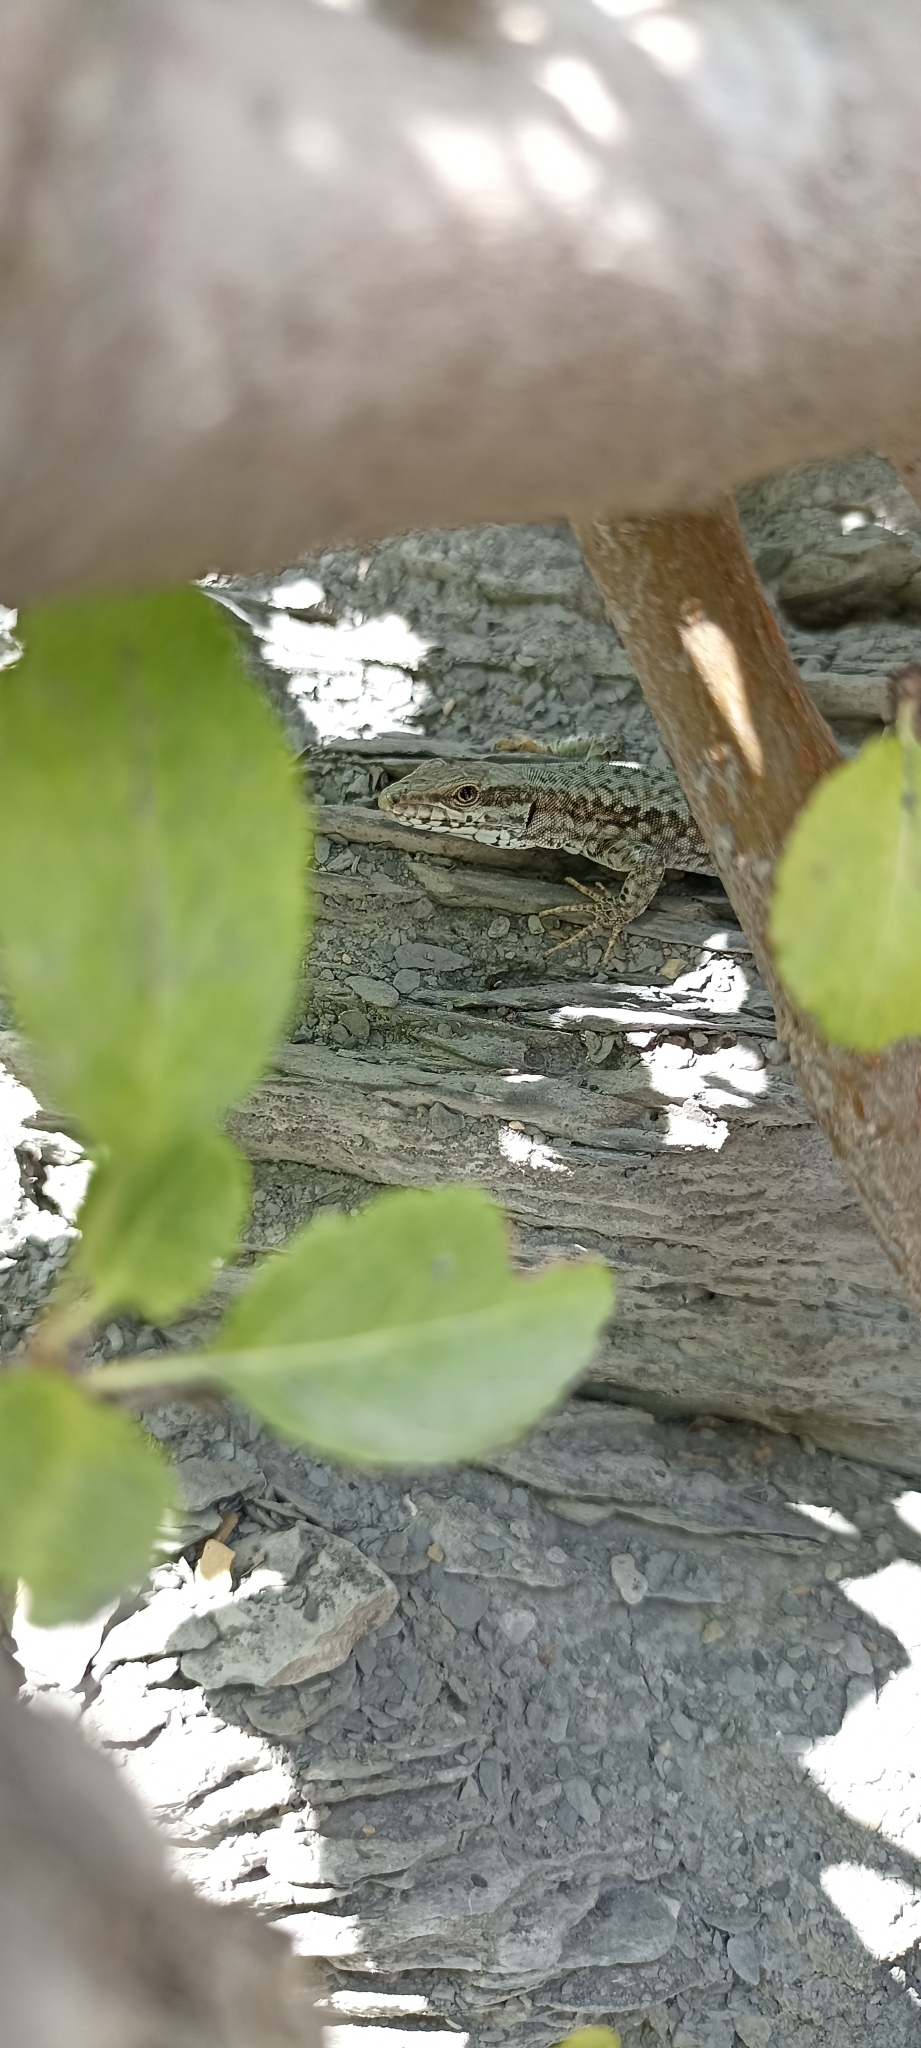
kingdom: Animalia
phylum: Chordata
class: Squamata
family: Lacertidae
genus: Podarcis
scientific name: Podarcis muralis
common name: Common wall lizard
